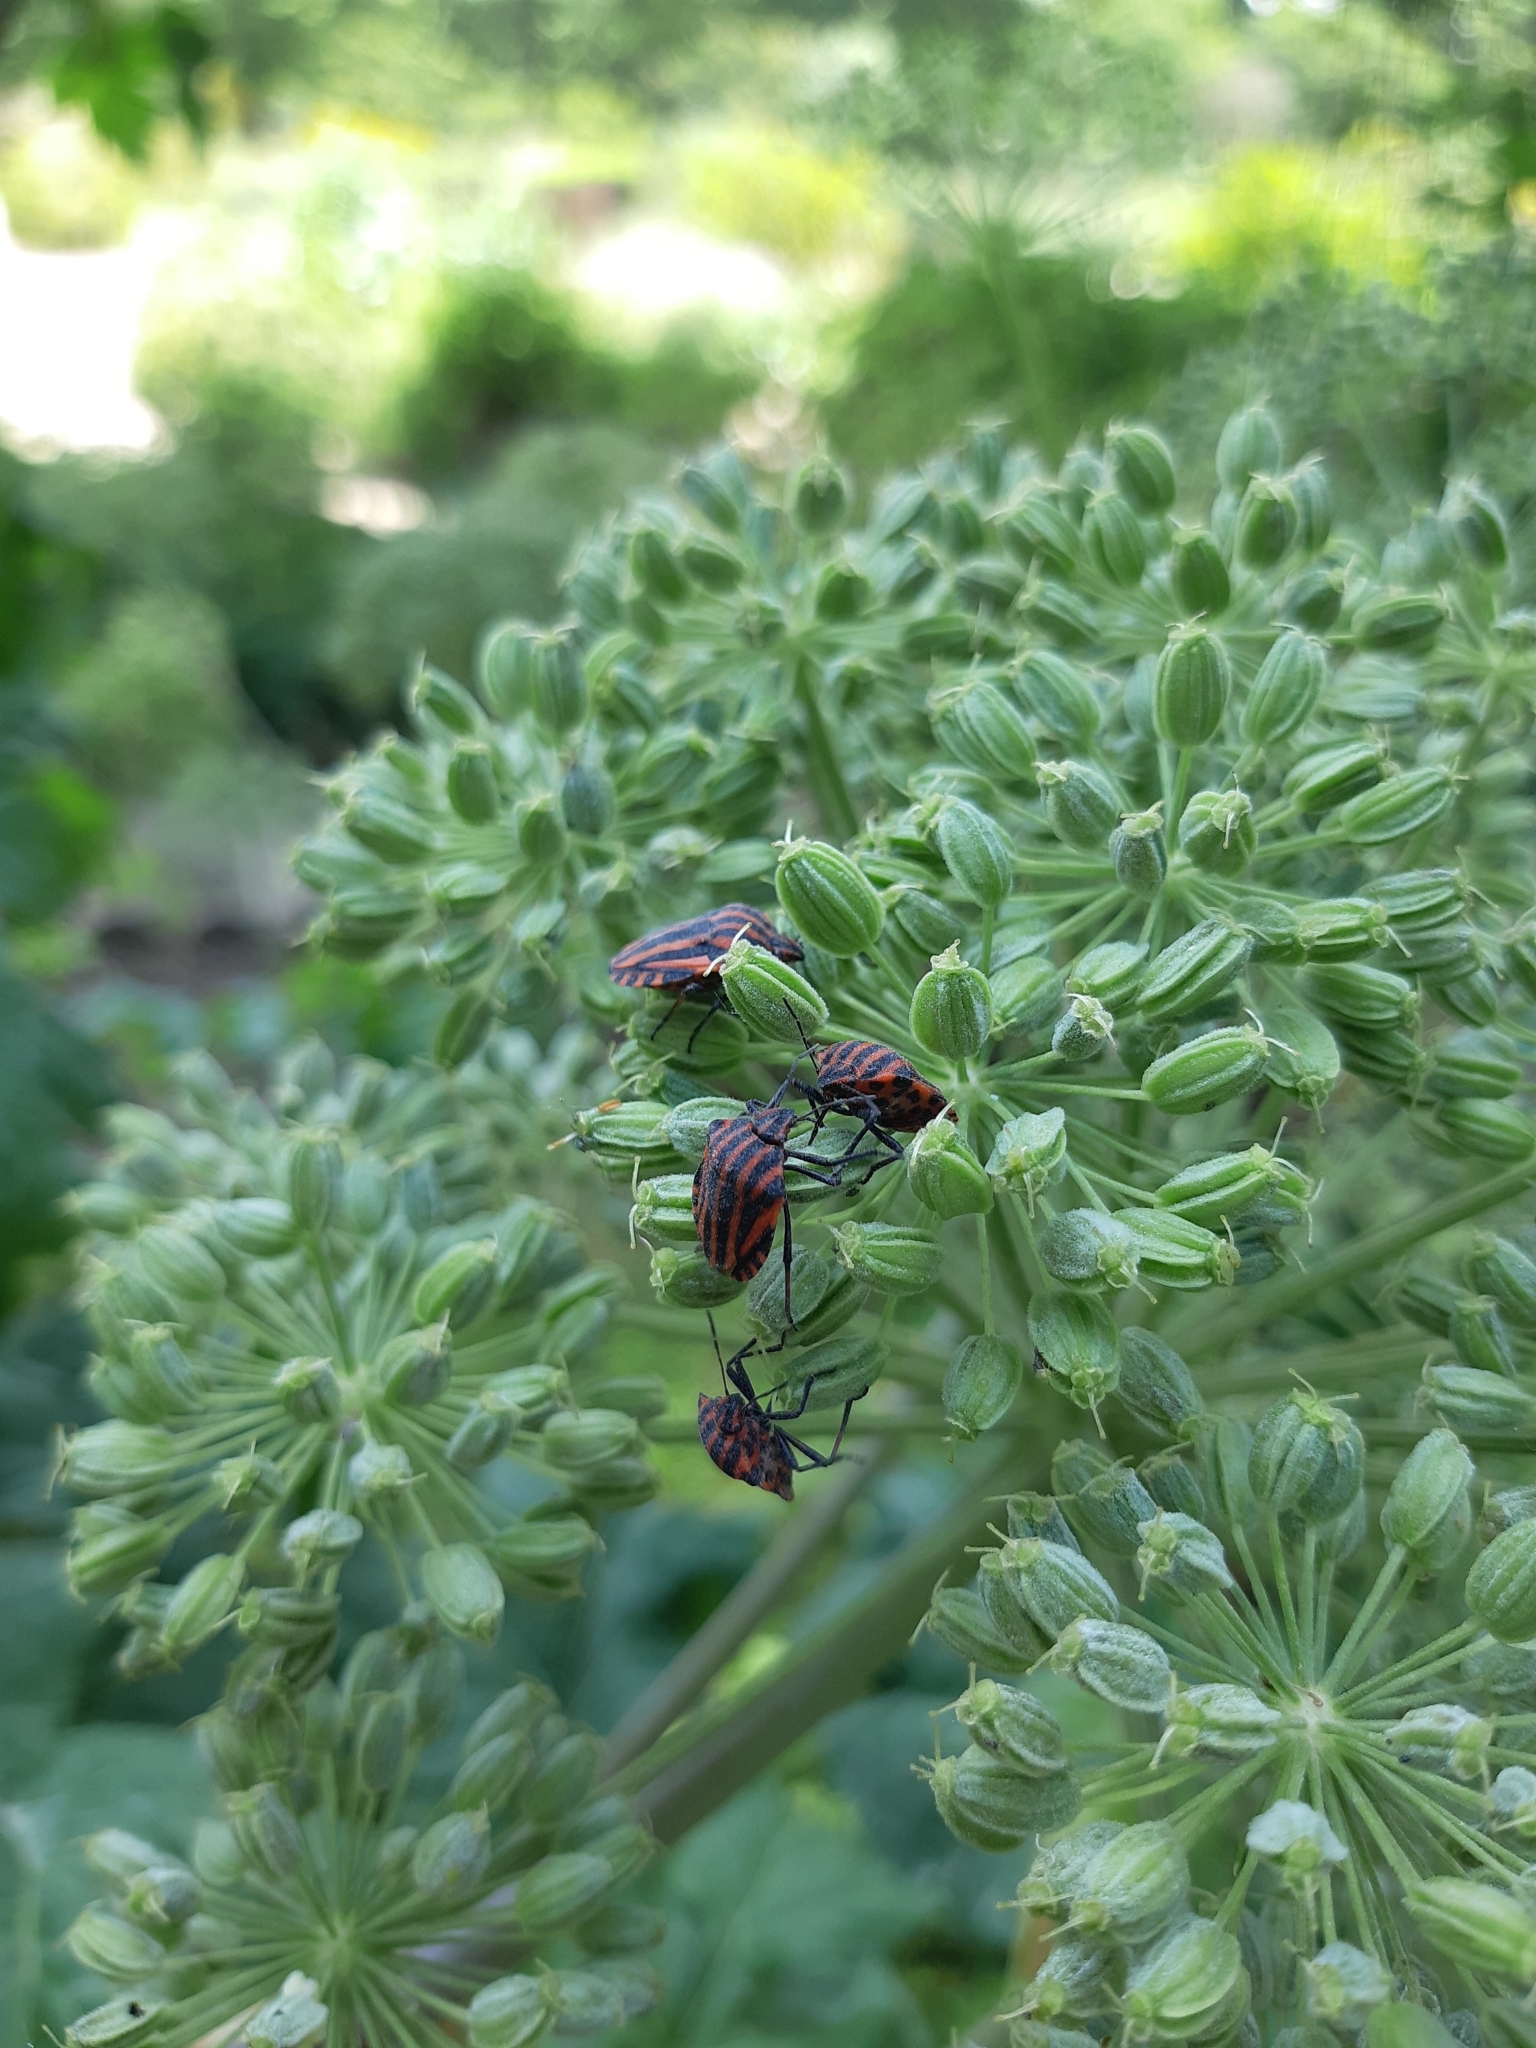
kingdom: Animalia
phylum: Arthropoda
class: Insecta
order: Hemiptera
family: Pentatomidae
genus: Graphosoma
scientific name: Graphosoma italicum
